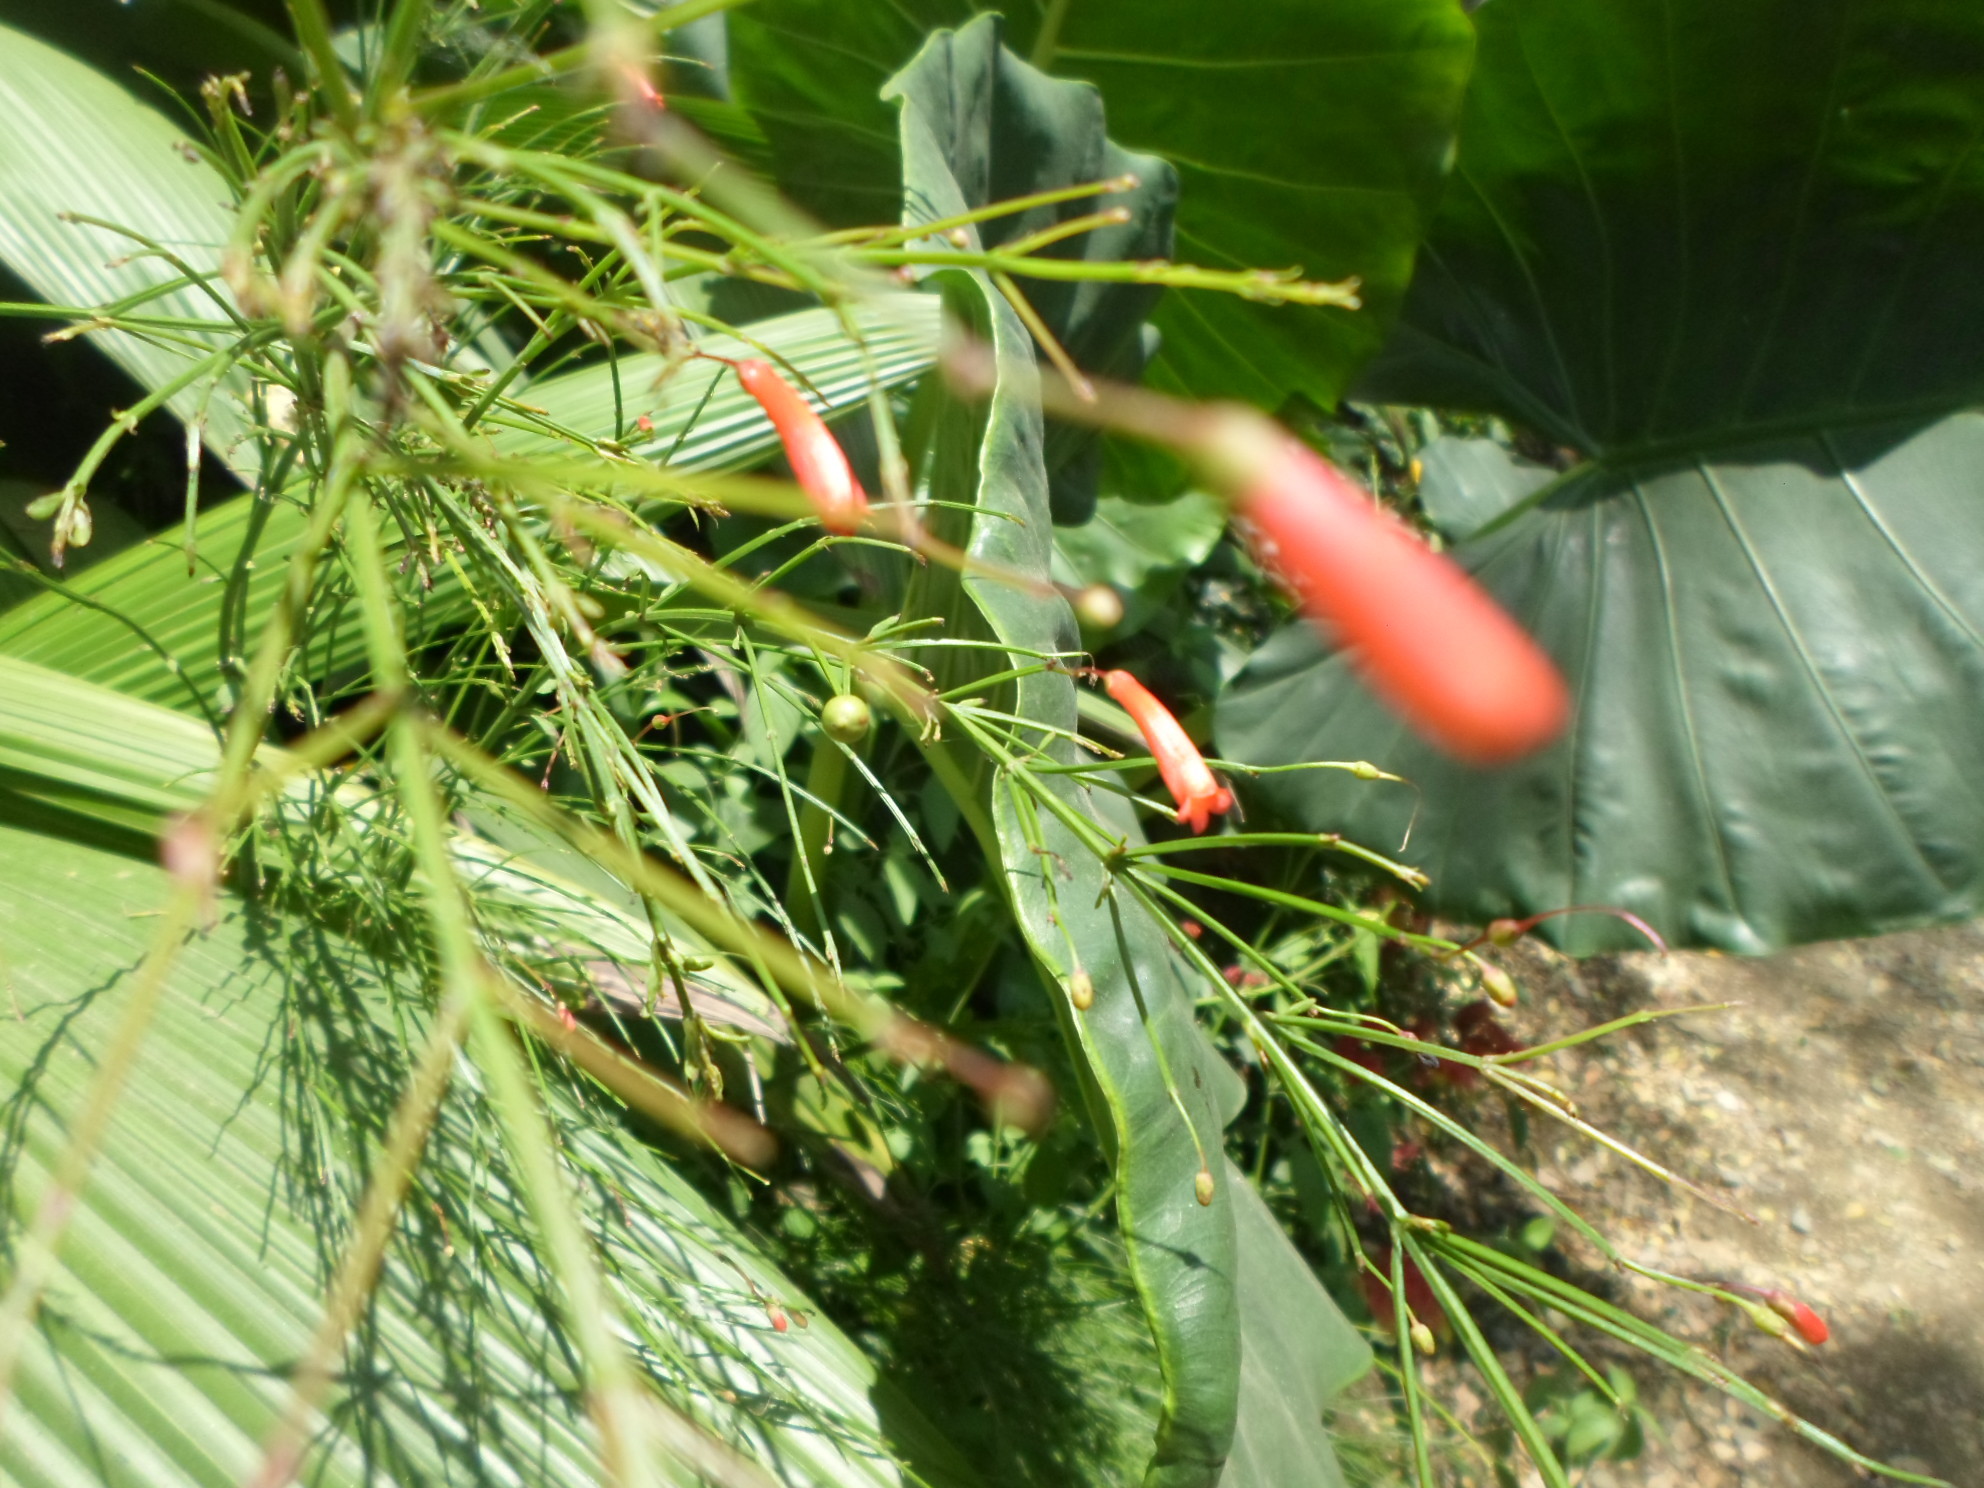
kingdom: Plantae
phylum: Tracheophyta
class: Magnoliopsida
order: Lamiales
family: Plantaginaceae
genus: Russelia
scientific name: Russelia equisetiformis
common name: Fountainbush
